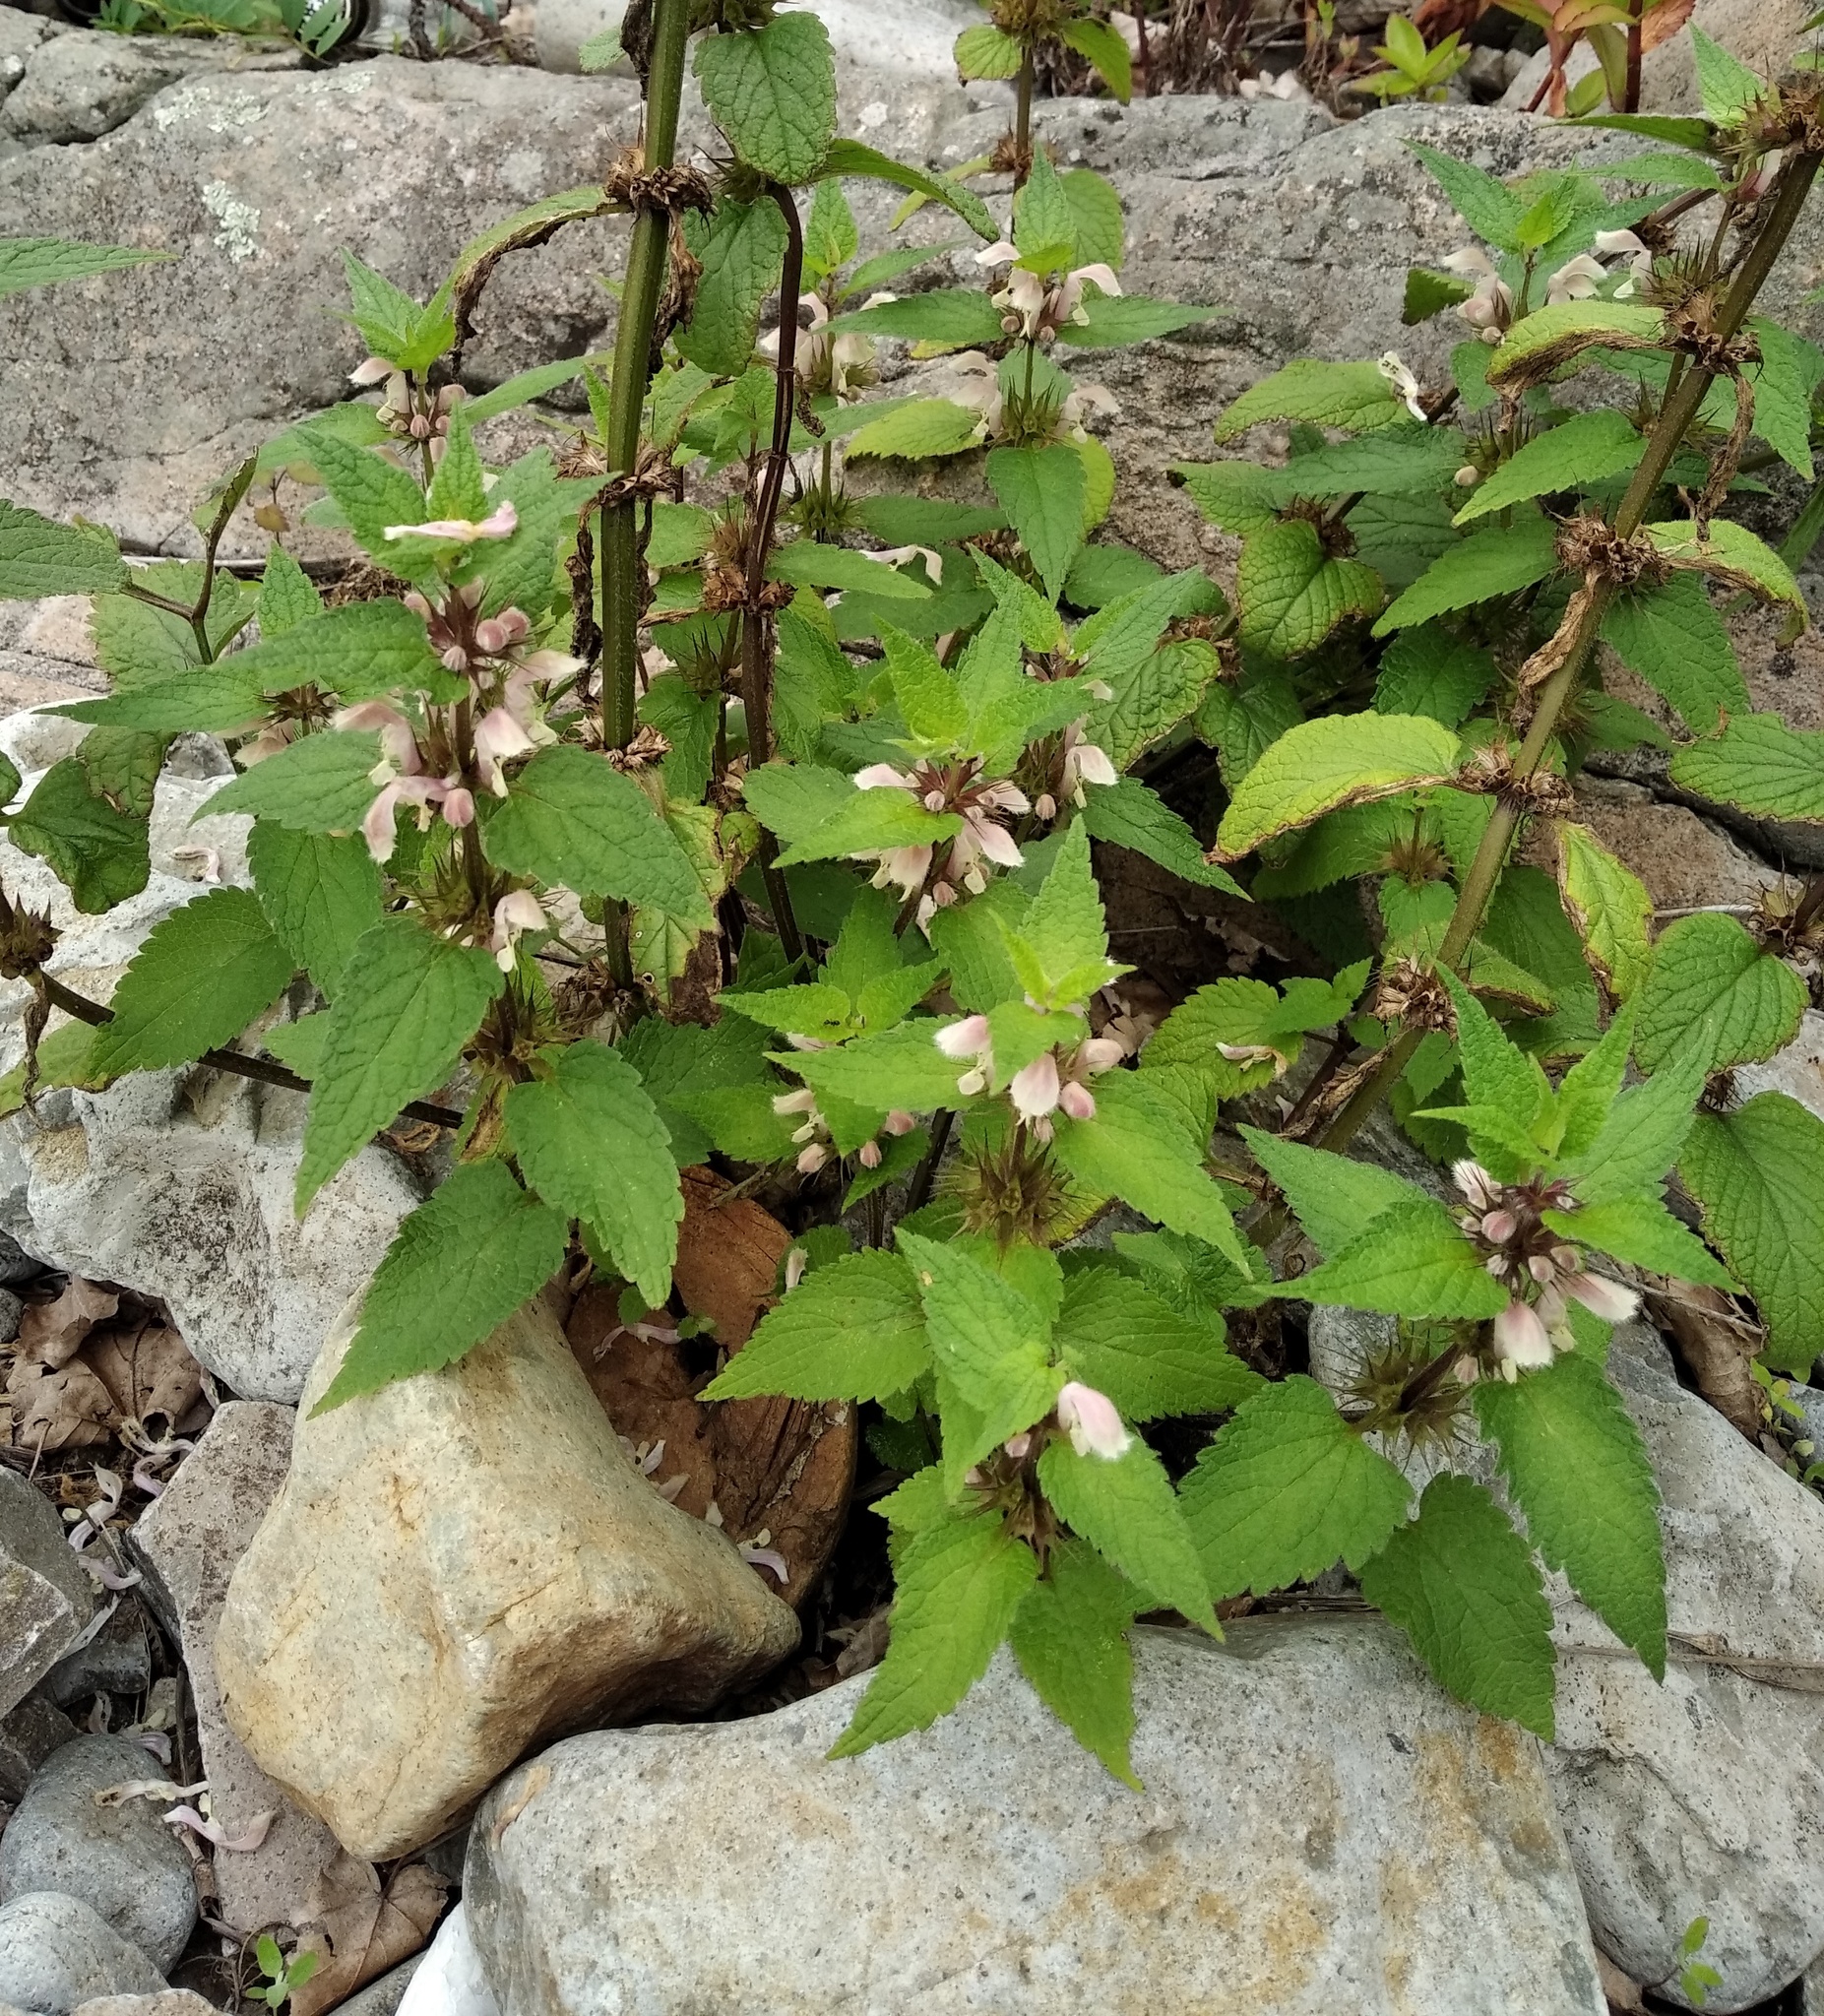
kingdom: Plantae
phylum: Tracheophyta
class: Magnoliopsida
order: Lamiales
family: Lamiaceae
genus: Lamium
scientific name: Lamium album
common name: White dead-nettle
